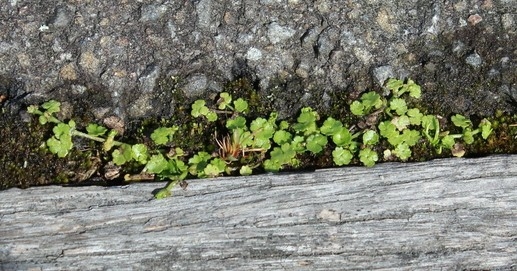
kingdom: Plantae
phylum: Tracheophyta
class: Magnoliopsida
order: Apiales
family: Araliaceae
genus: Hydrocotyle
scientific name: Hydrocotyle heteromeria
